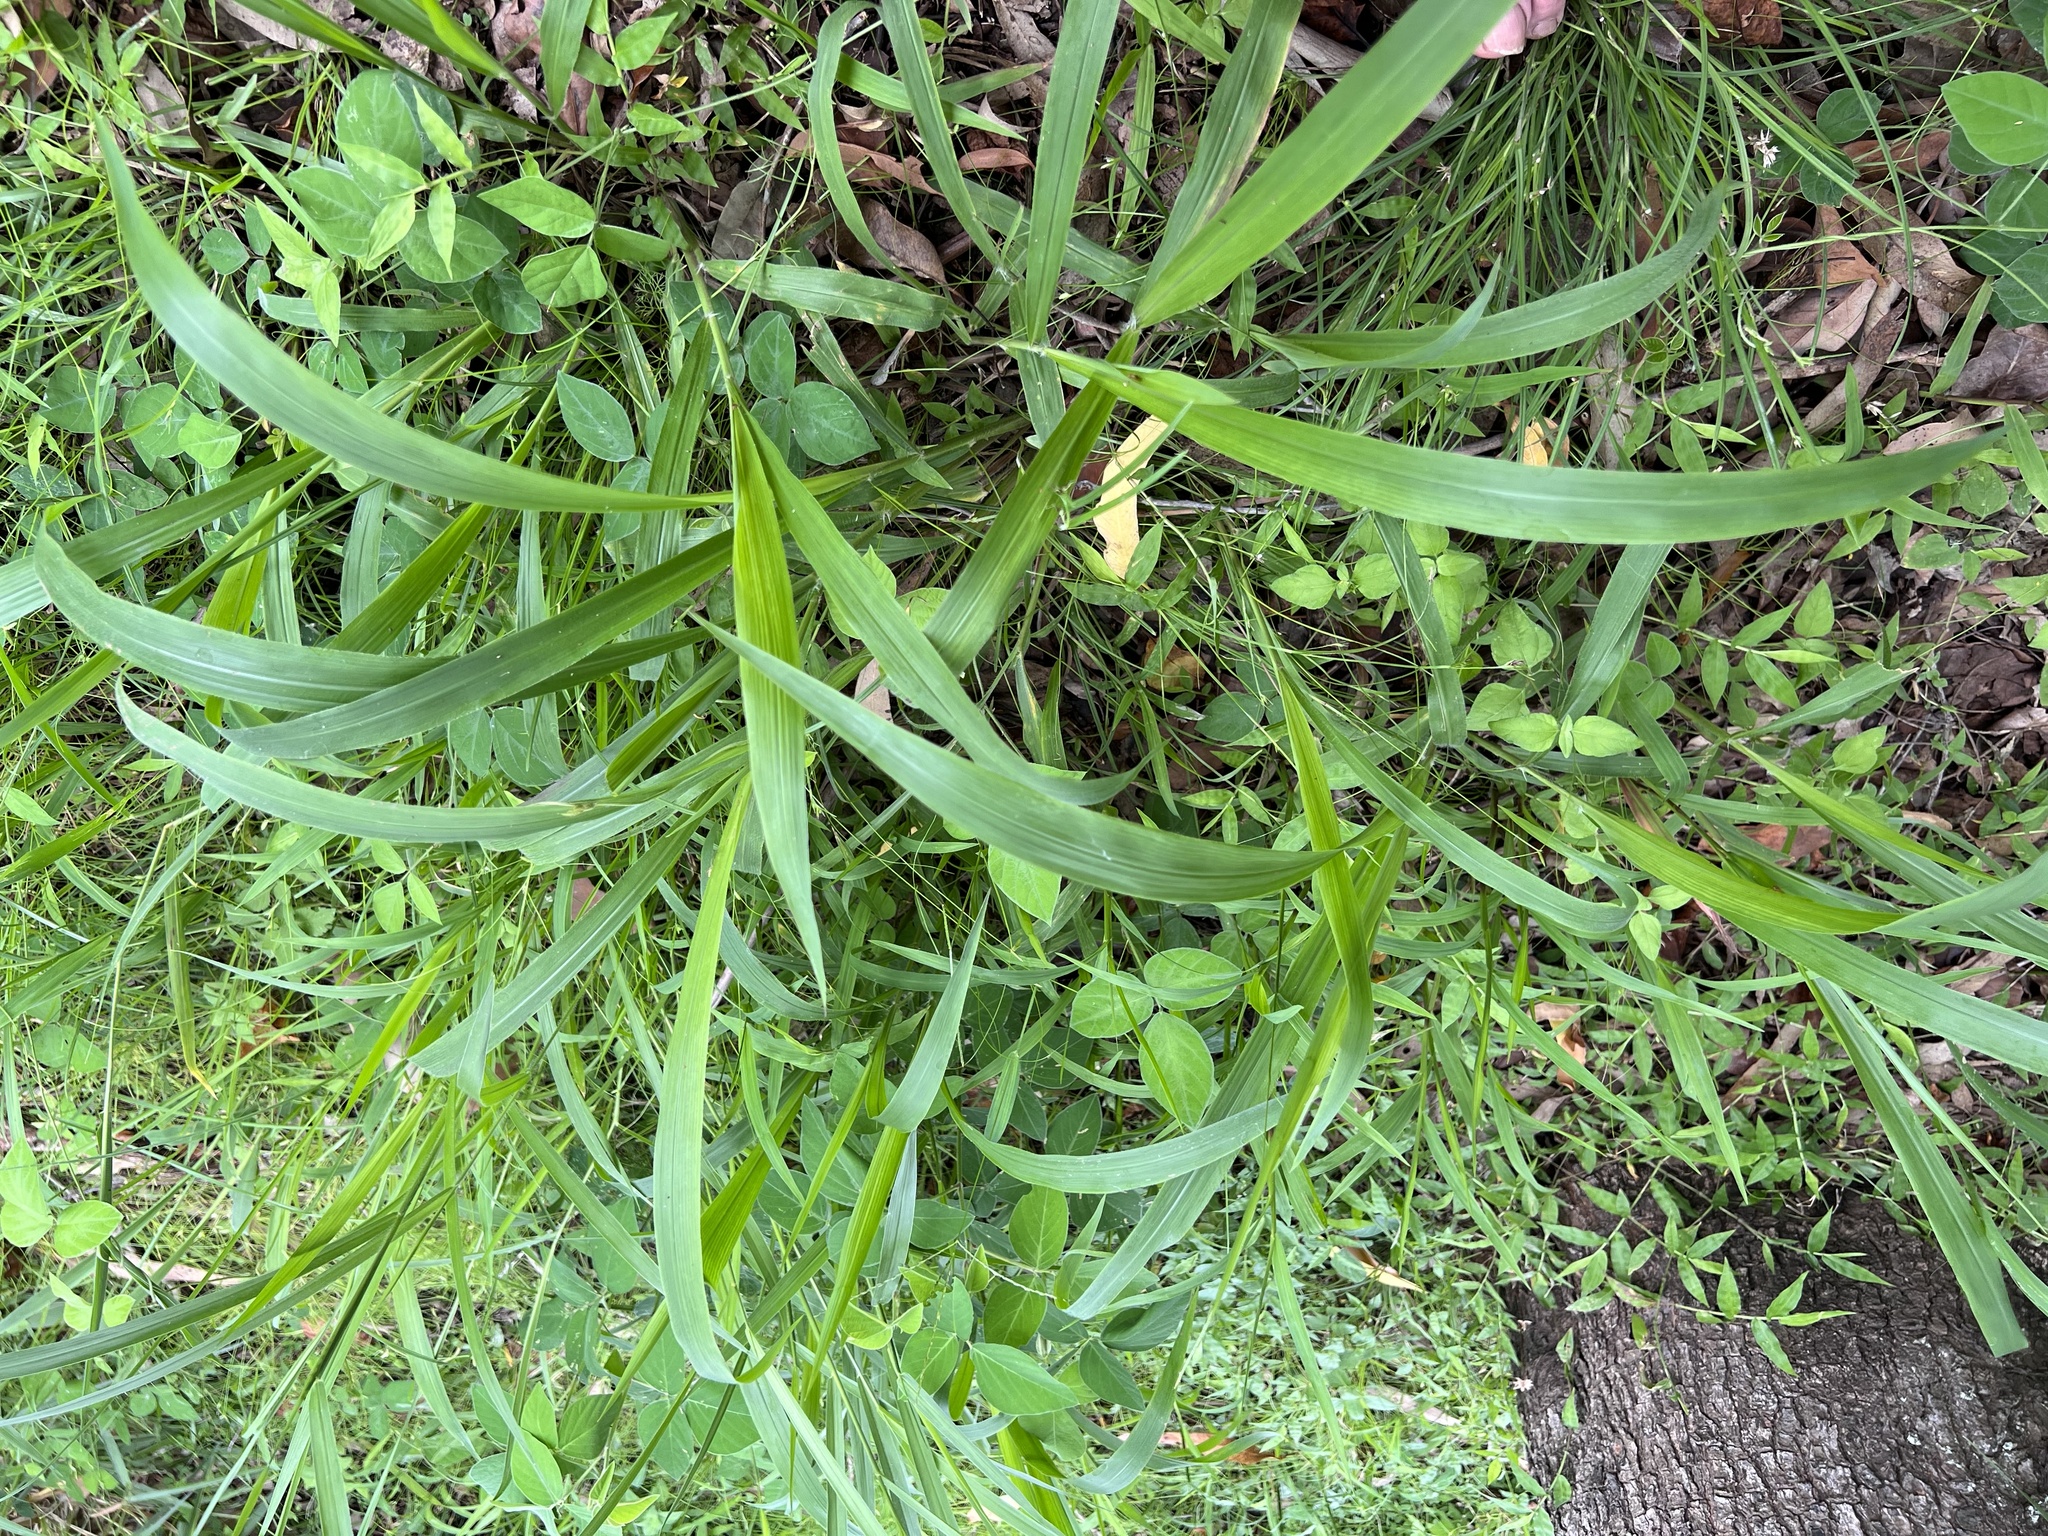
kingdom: Plantae
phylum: Tracheophyta
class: Liliopsida
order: Poales
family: Poaceae
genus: Megathyrsus
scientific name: Megathyrsus maximus
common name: Guineagrass
